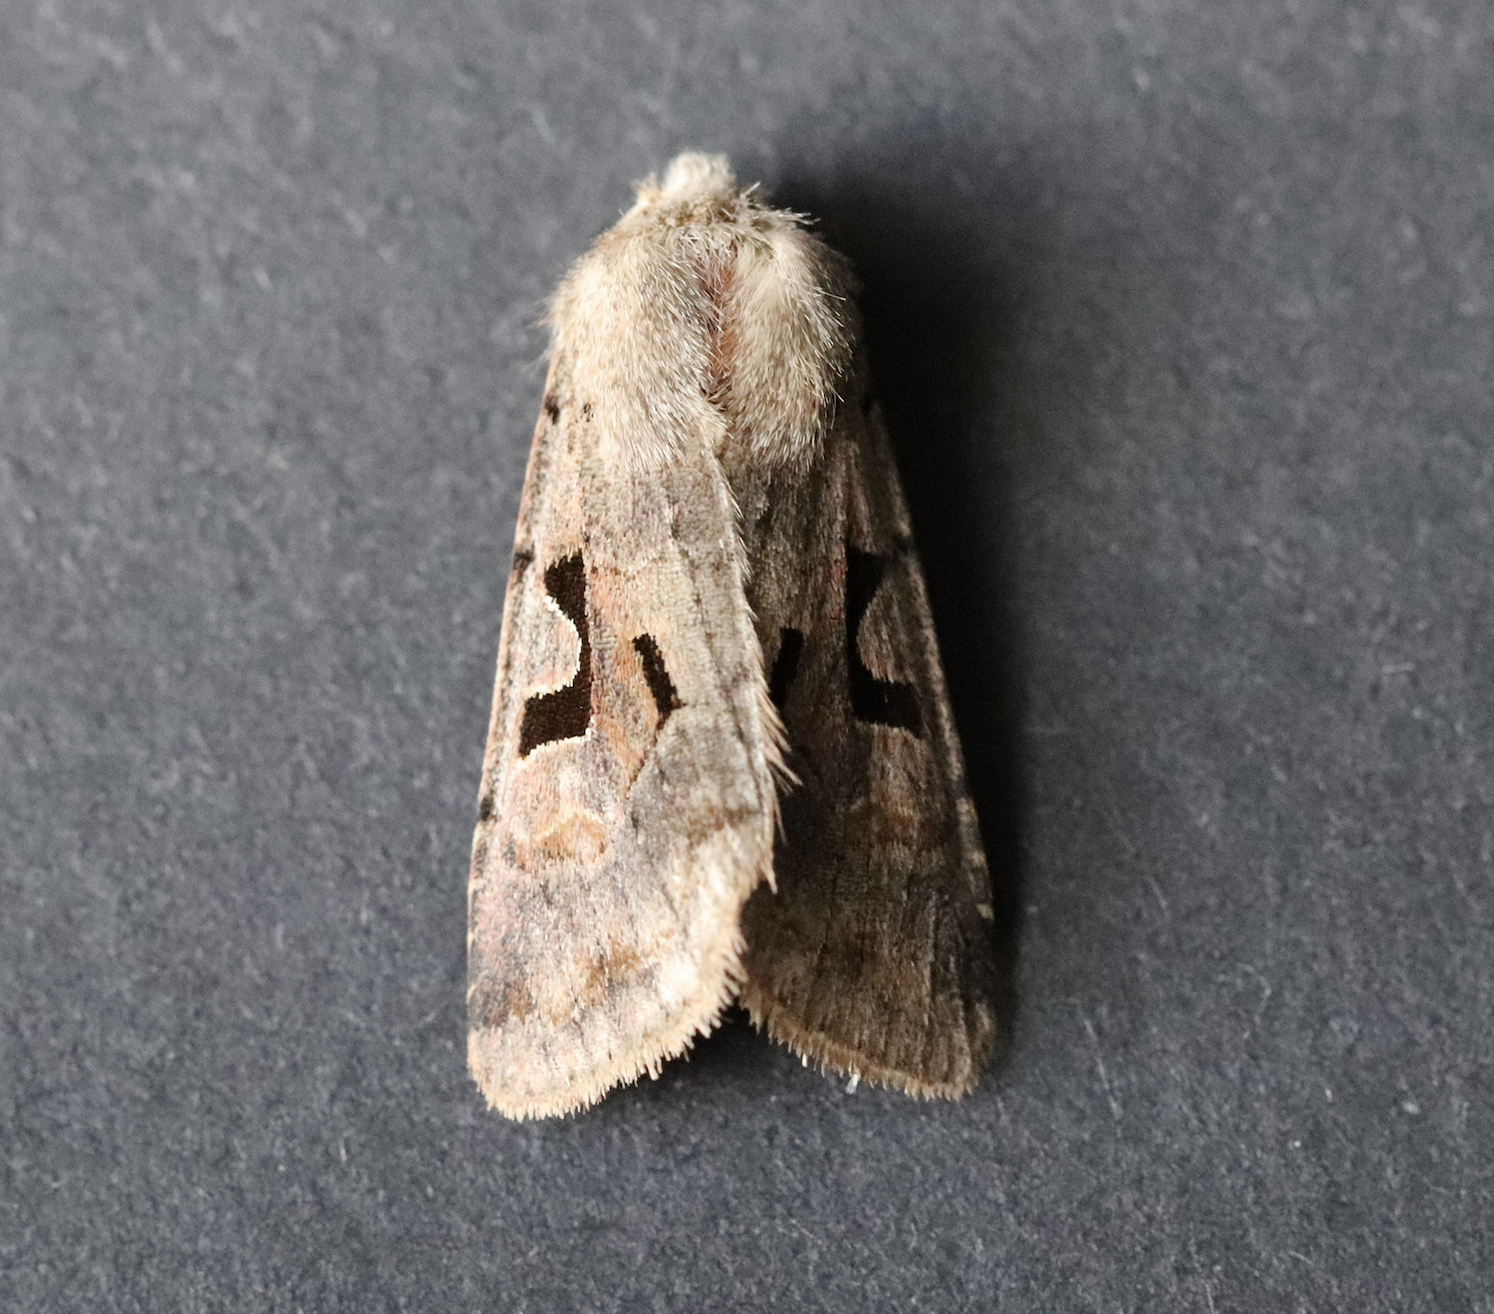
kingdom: Animalia
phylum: Arthropoda
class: Insecta
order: Lepidoptera
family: Noctuidae
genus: Orthosia
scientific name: Orthosia gothica
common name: Hebrew character
